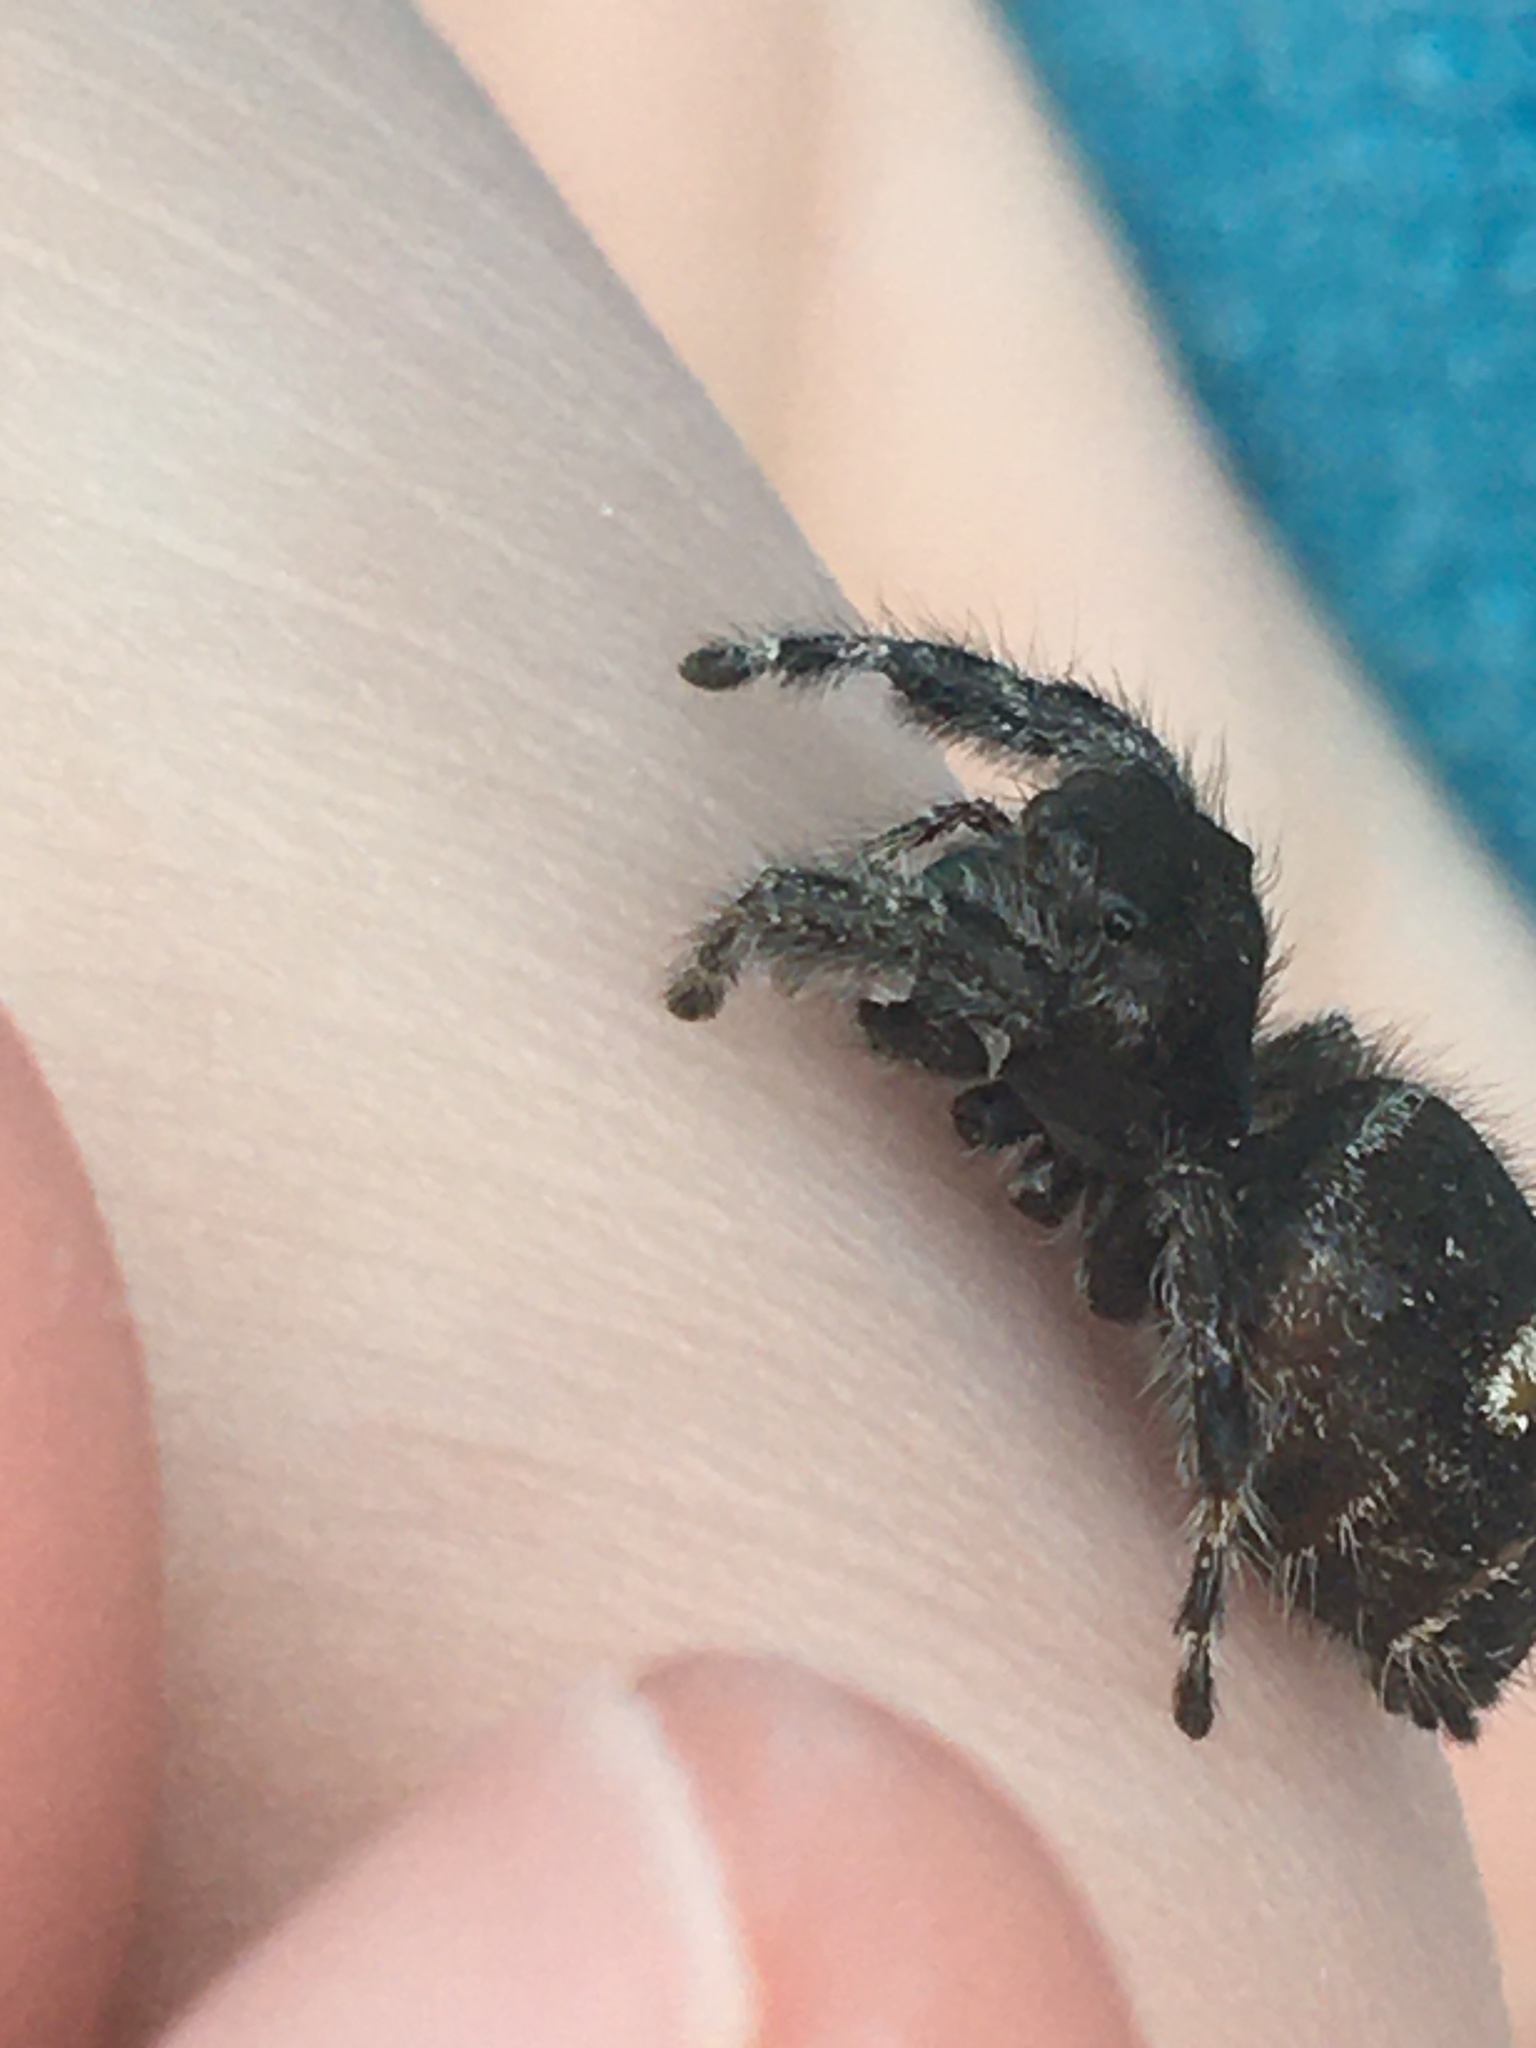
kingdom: Animalia
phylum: Arthropoda
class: Arachnida
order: Araneae
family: Salticidae
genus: Phidippus
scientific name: Phidippus audax
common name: Bold jumper
